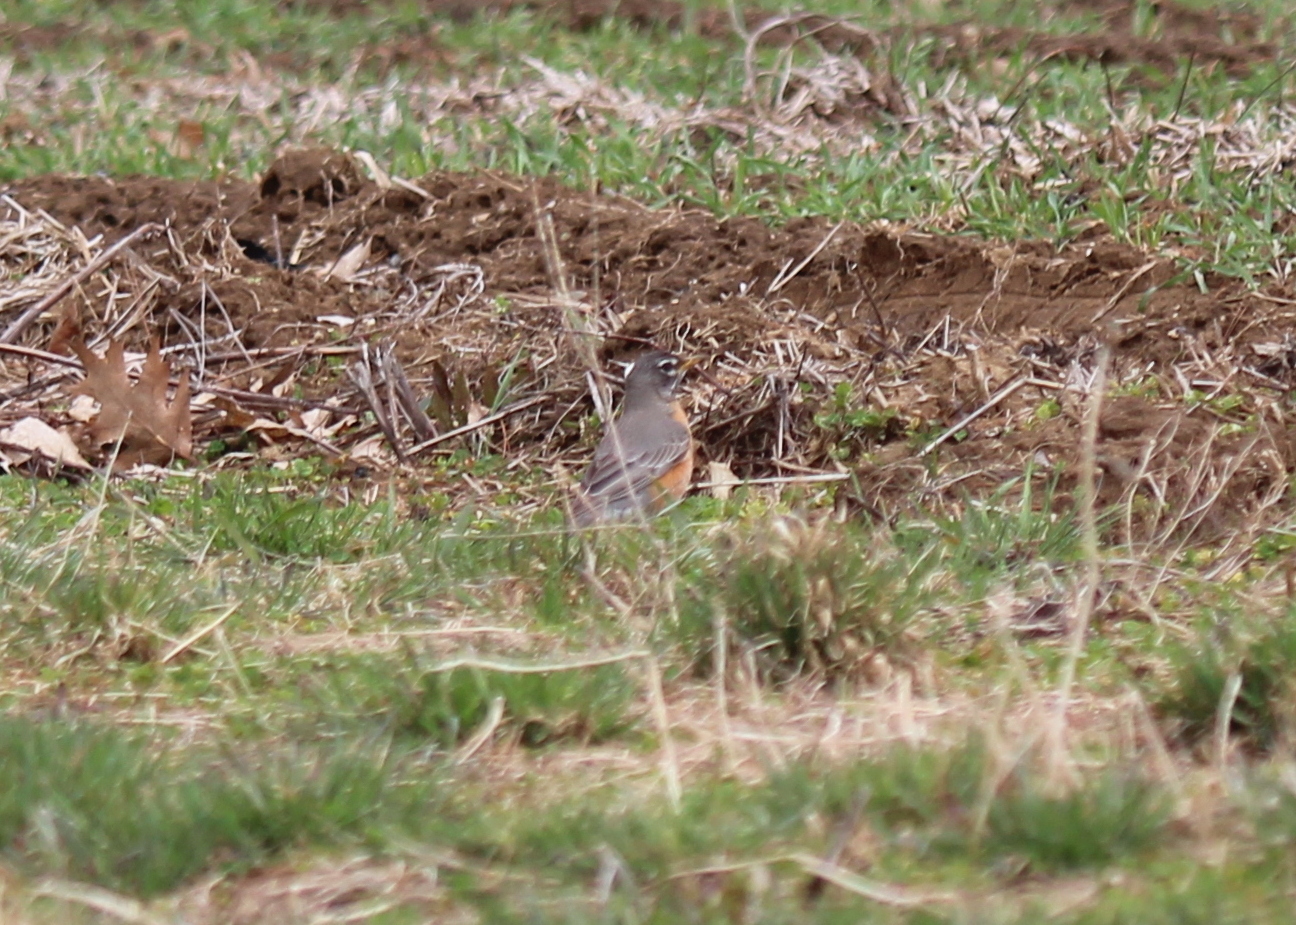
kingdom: Animalia
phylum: Chordata
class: Aves
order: Passeriformes
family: Turdidae
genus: Turdus
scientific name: Turdus migratorius
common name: American robin
